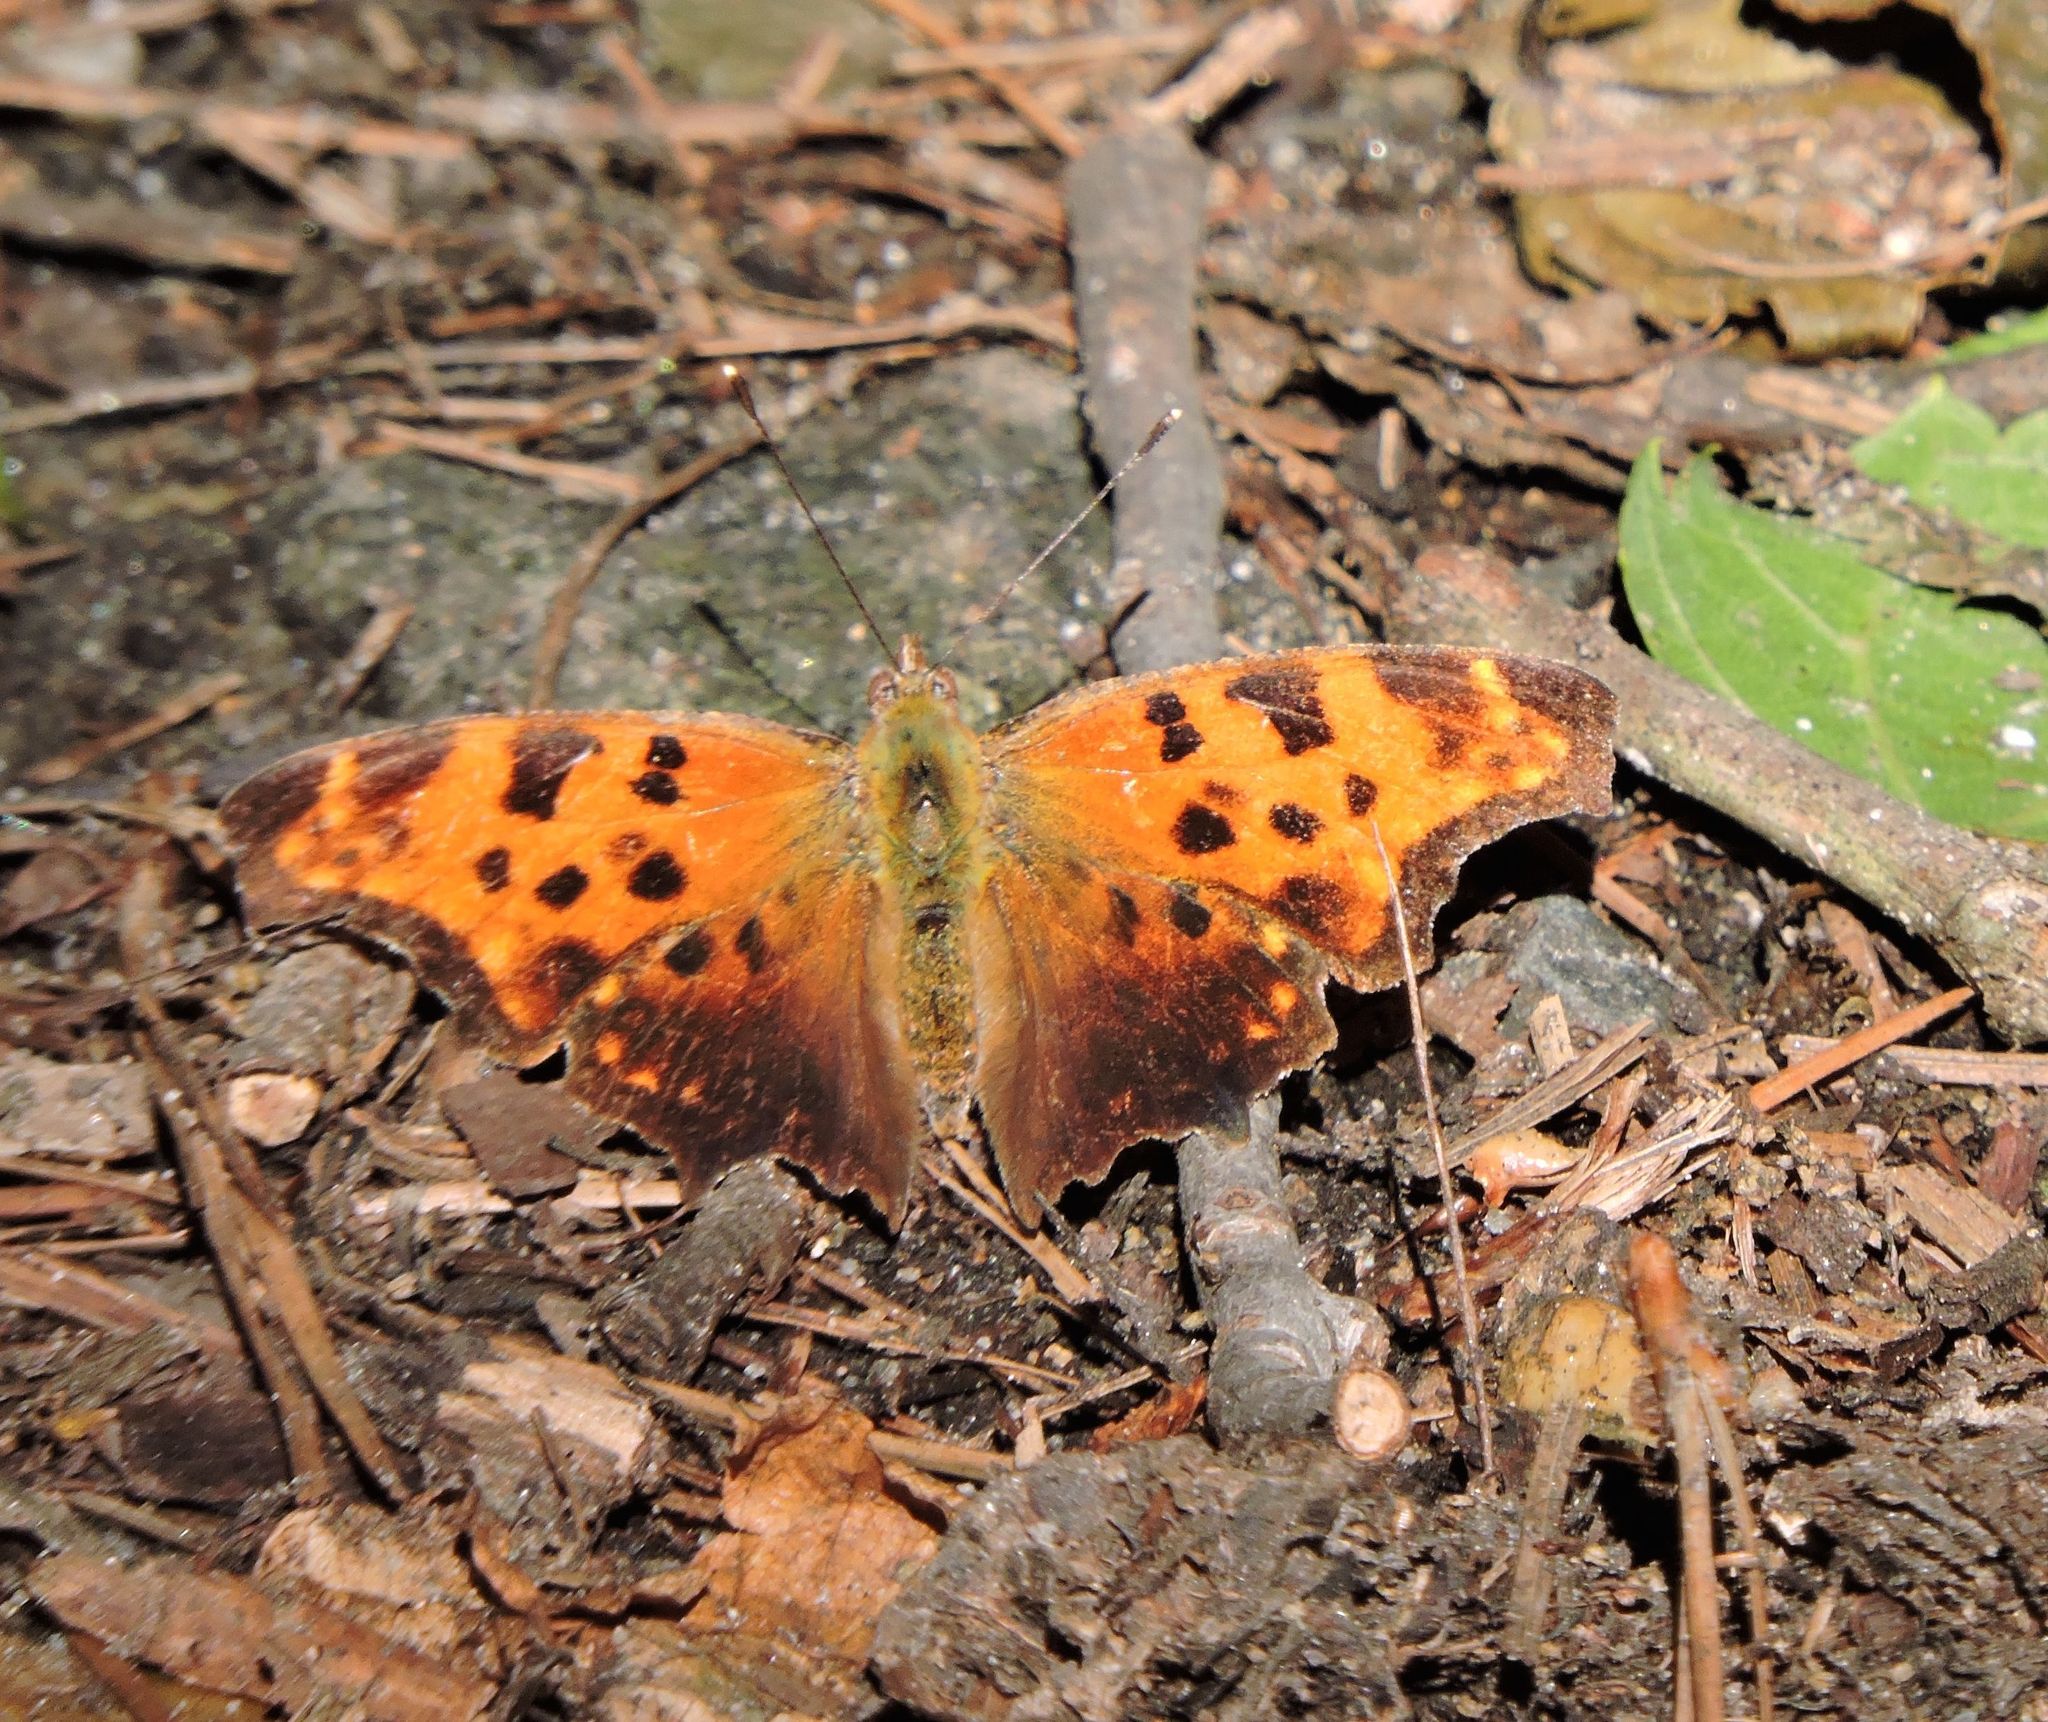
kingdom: Animalia
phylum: Arthropoda
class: Insecta
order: Lepidoptera
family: Nymphalidae
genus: Polygonia
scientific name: Polygonia comma
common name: Eastern comma
